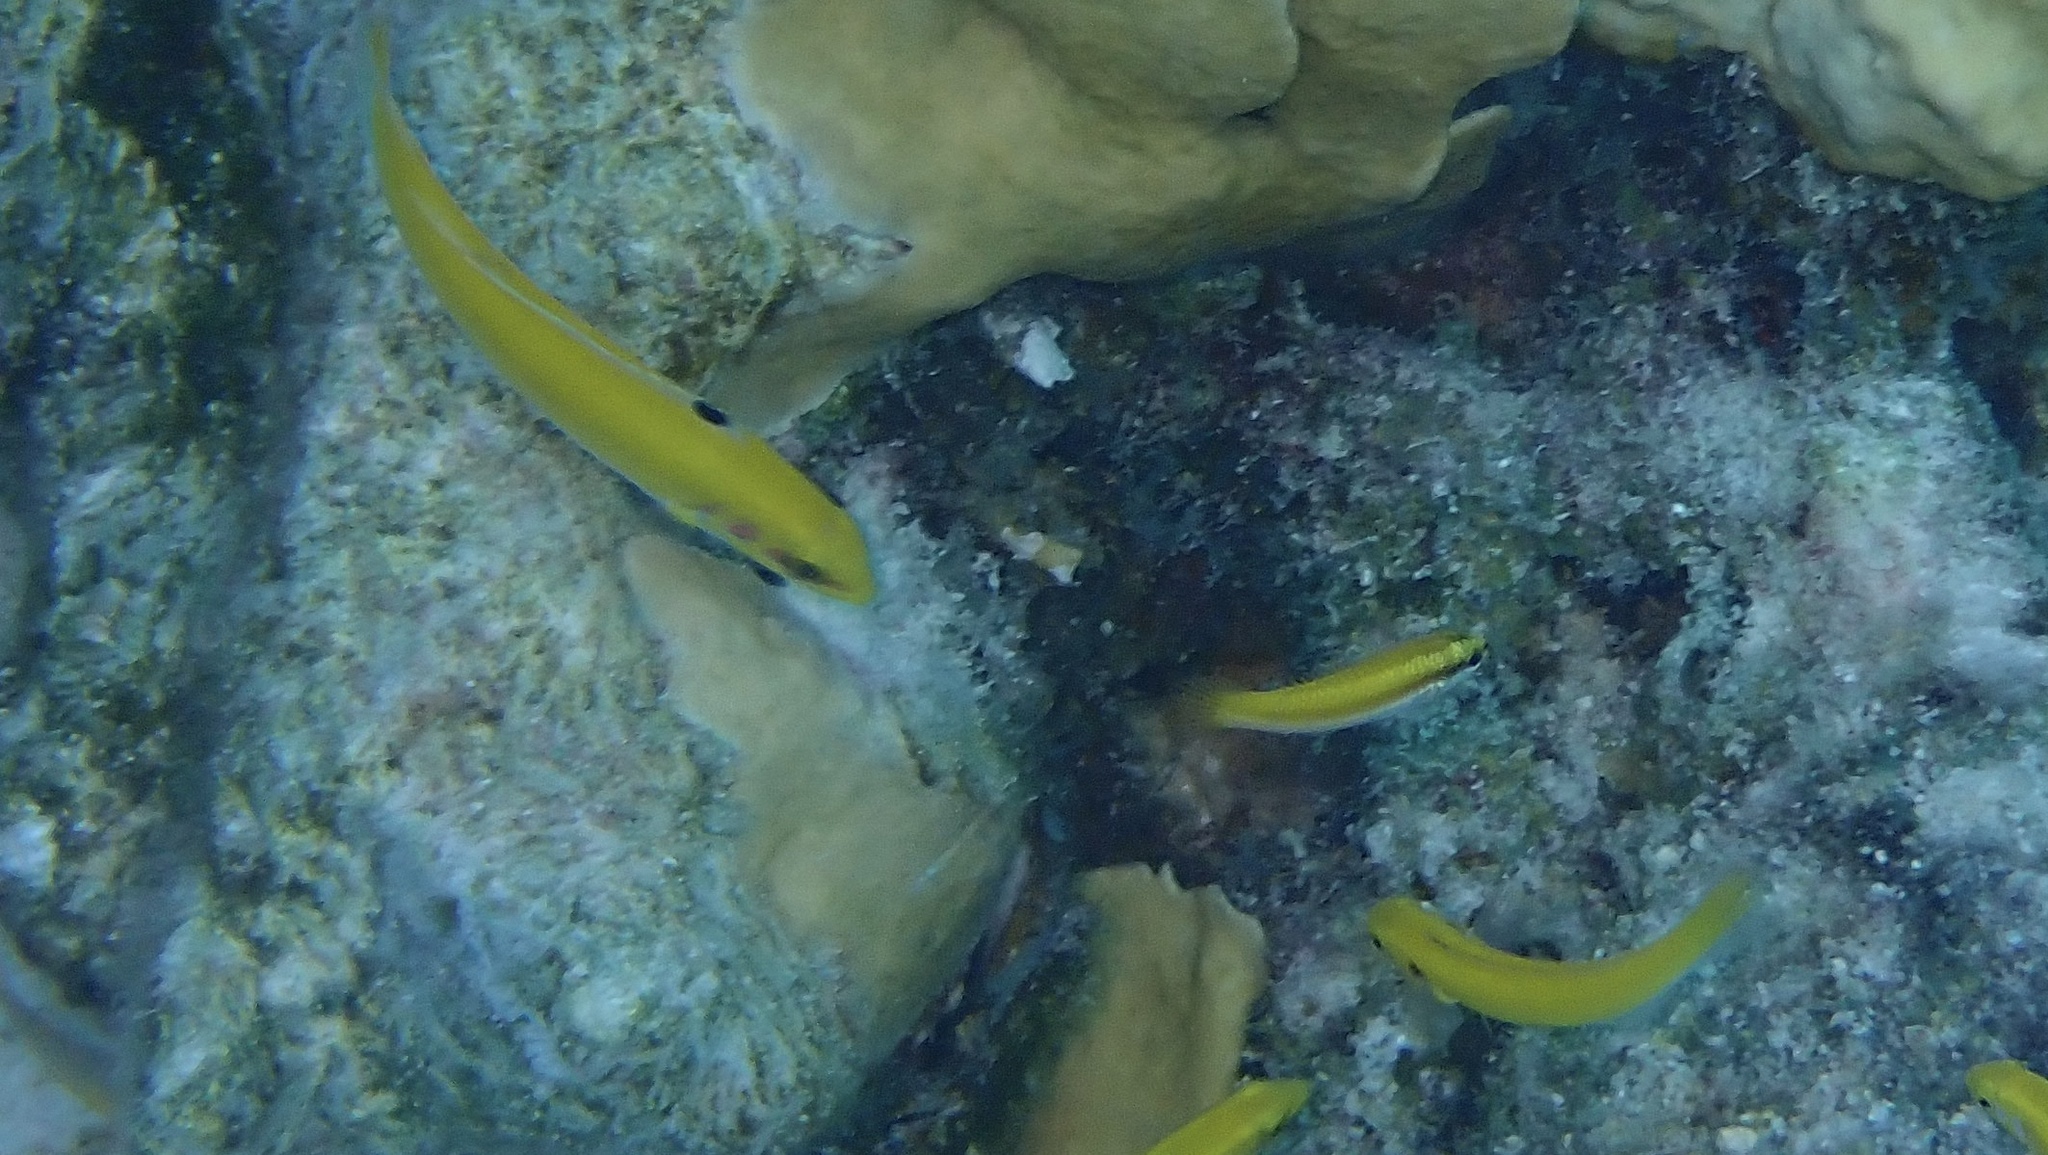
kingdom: Animalia
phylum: Chordata
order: Perciformes
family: Labridae
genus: Thalassoma
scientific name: Thalassoma bifasciatum
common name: Bluehead wrasse
